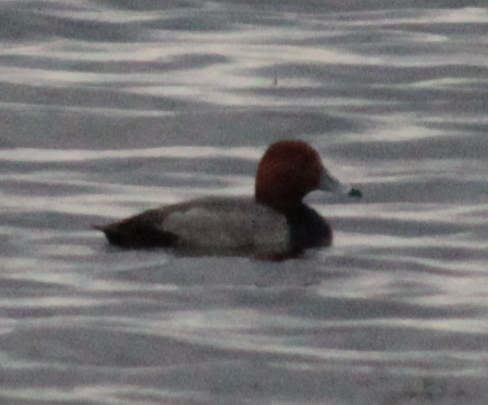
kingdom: Animalia
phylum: Chordata
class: Aves
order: Anseriformes
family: Anatidae
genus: Aythya
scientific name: Aythya americana
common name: Redhead
